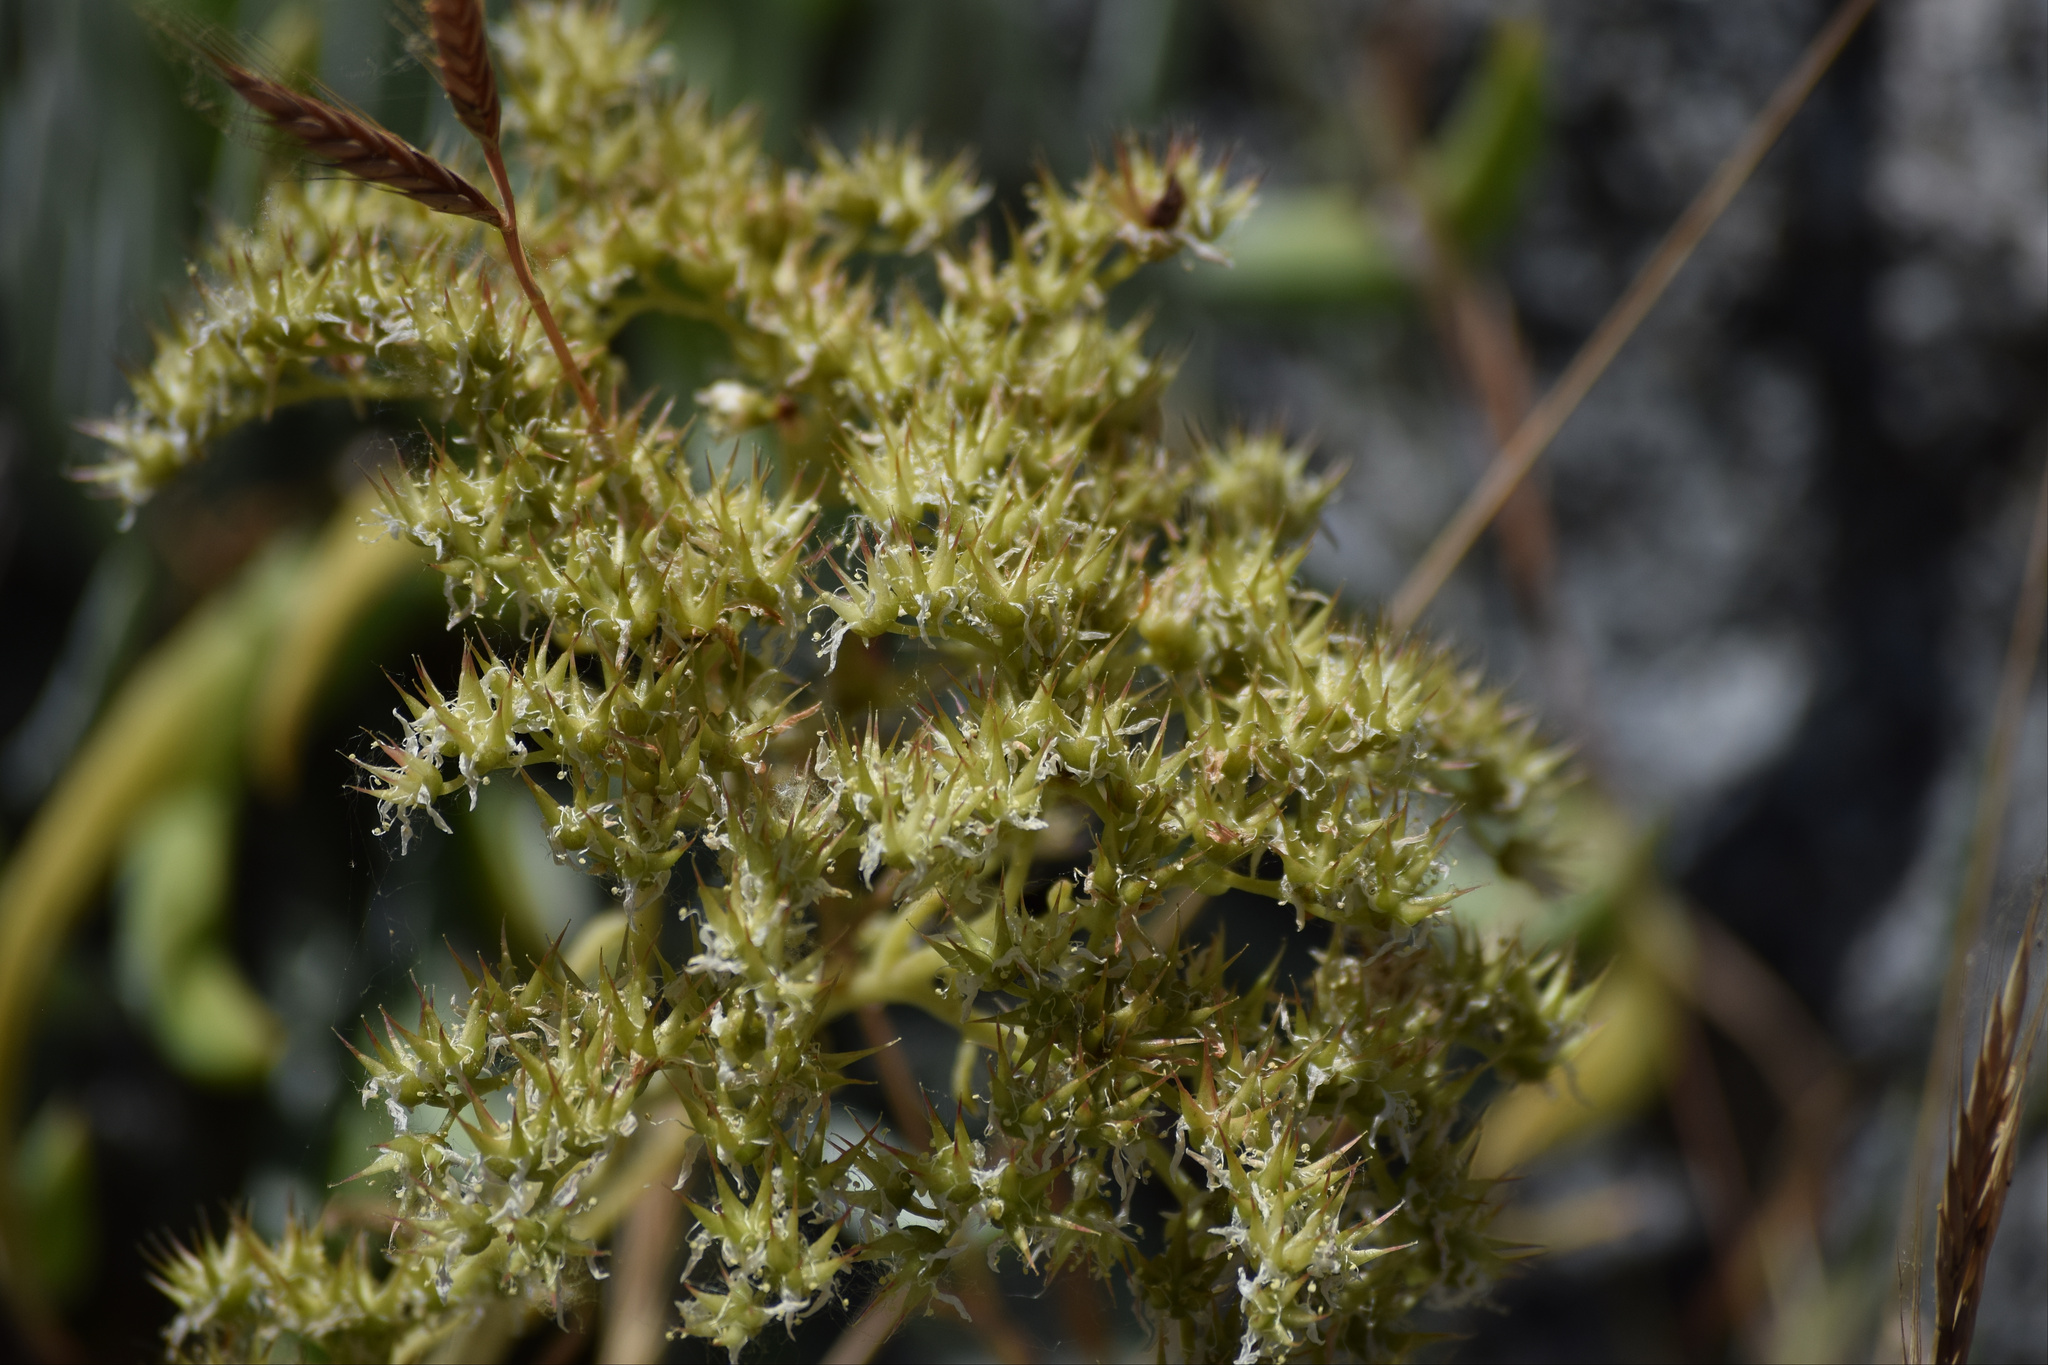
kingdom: Plantae
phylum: Tracheophyta
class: Magnoliopsida
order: Saxifragales
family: Crassulaceae
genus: Dudleya
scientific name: Dudleya densiflora
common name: San gabriel mountains dudleya
